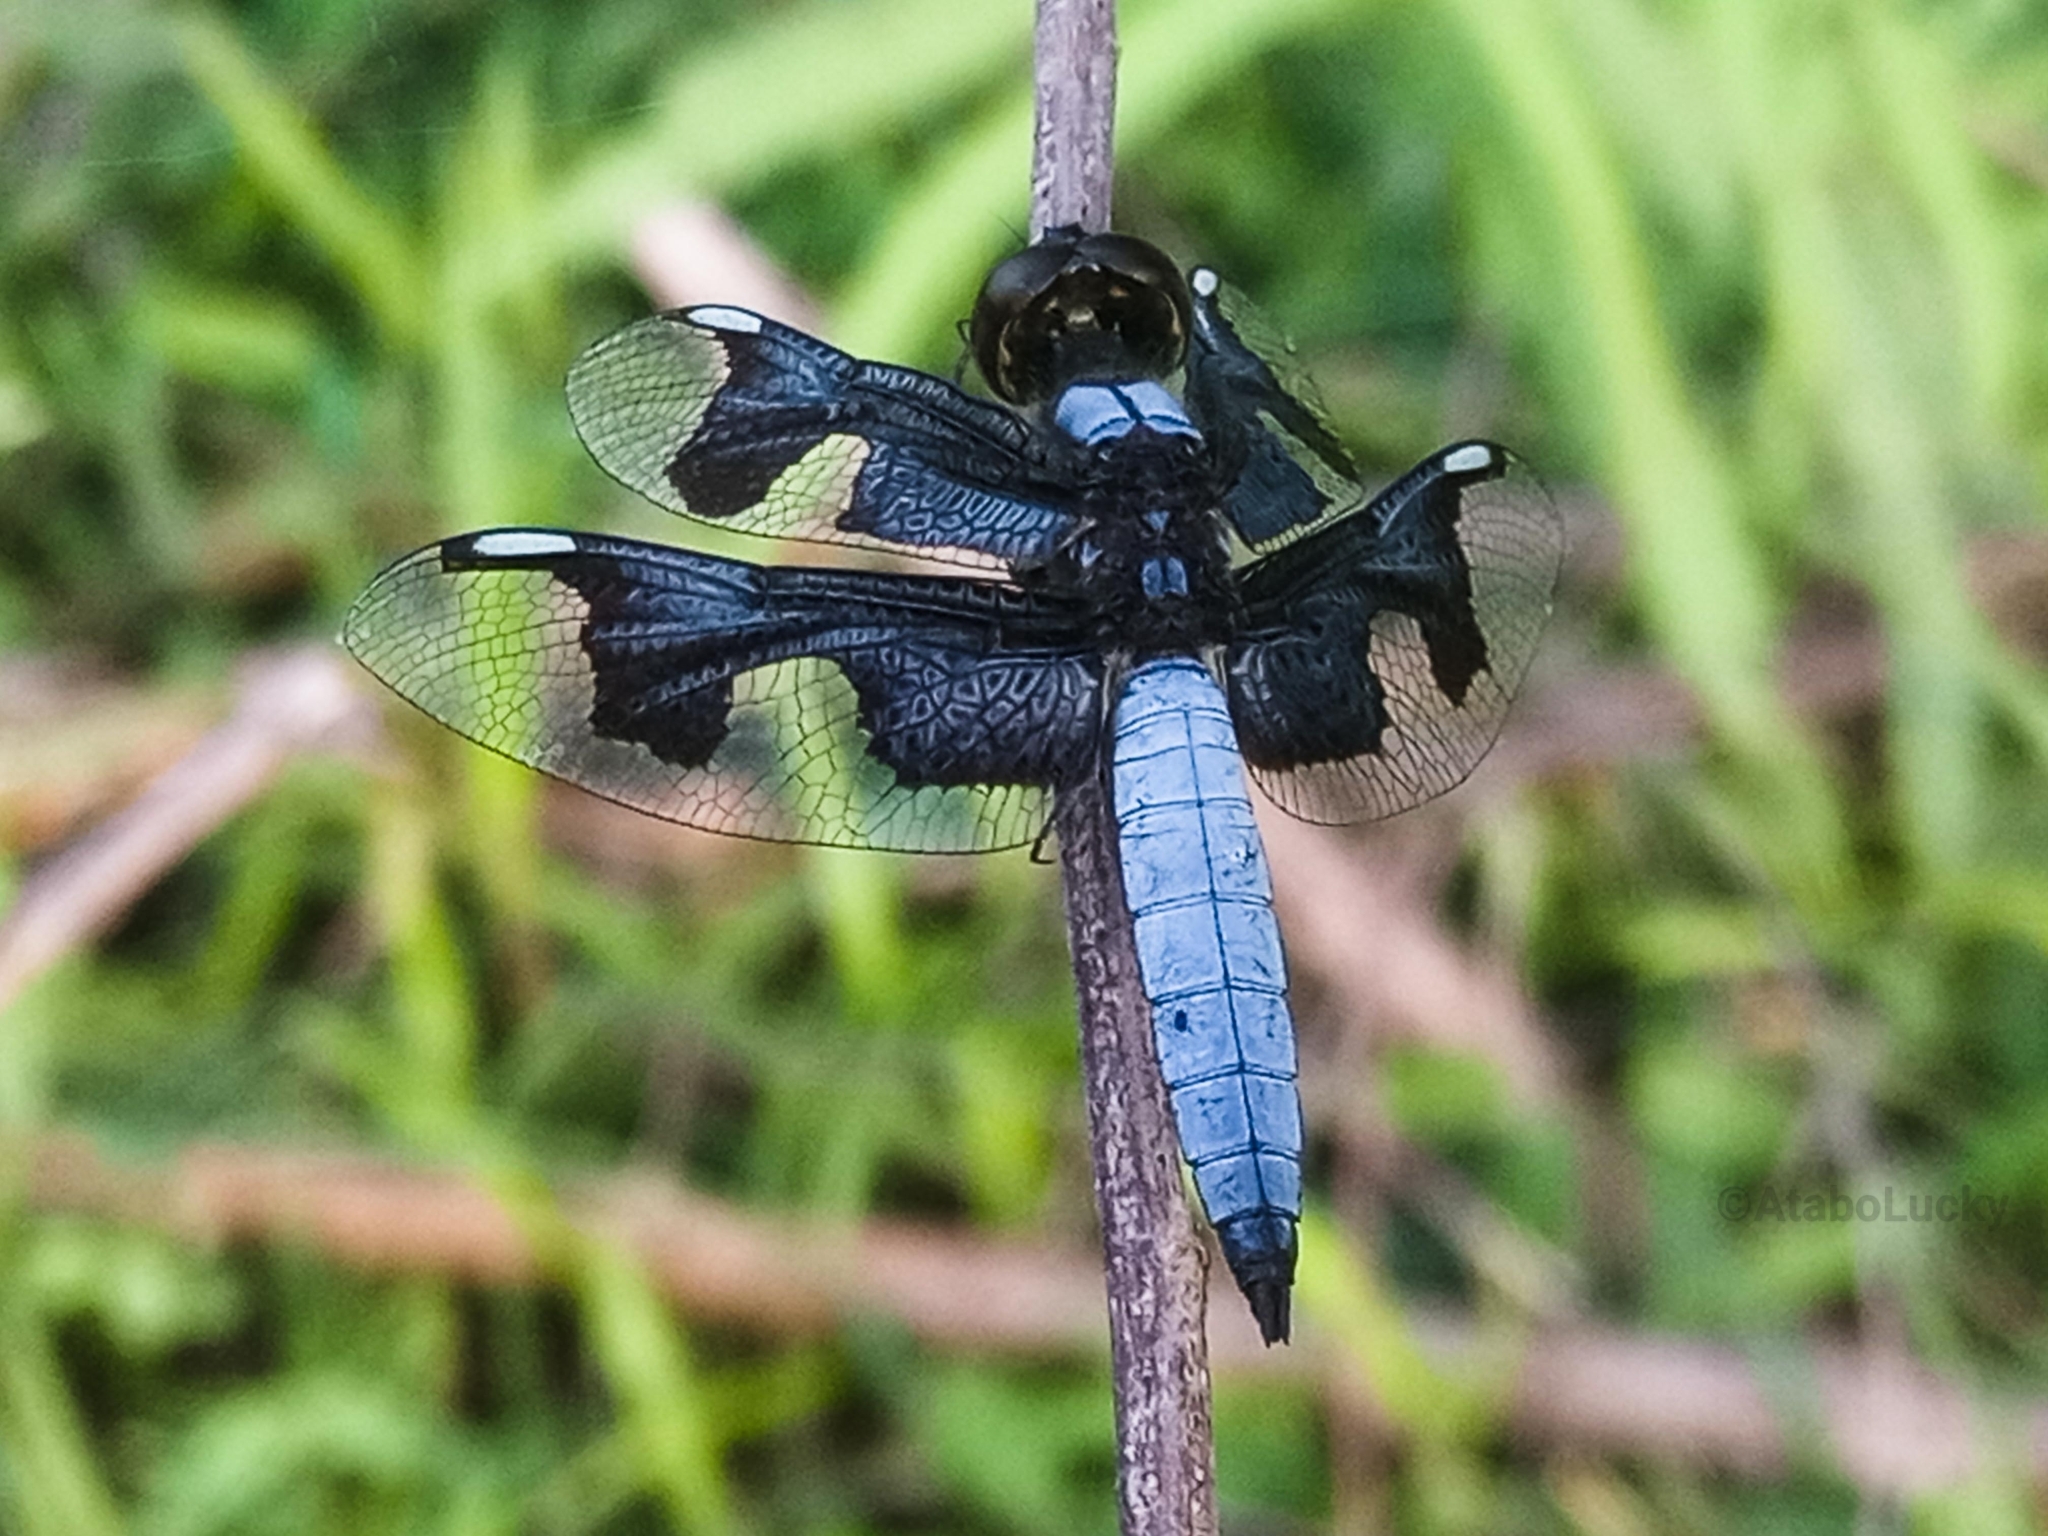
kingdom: Animalia
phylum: Arthropoda
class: Insecta
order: Odonata
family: Libellulidae
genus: Palpopleura
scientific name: Palpopleura portia
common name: Portia widow
